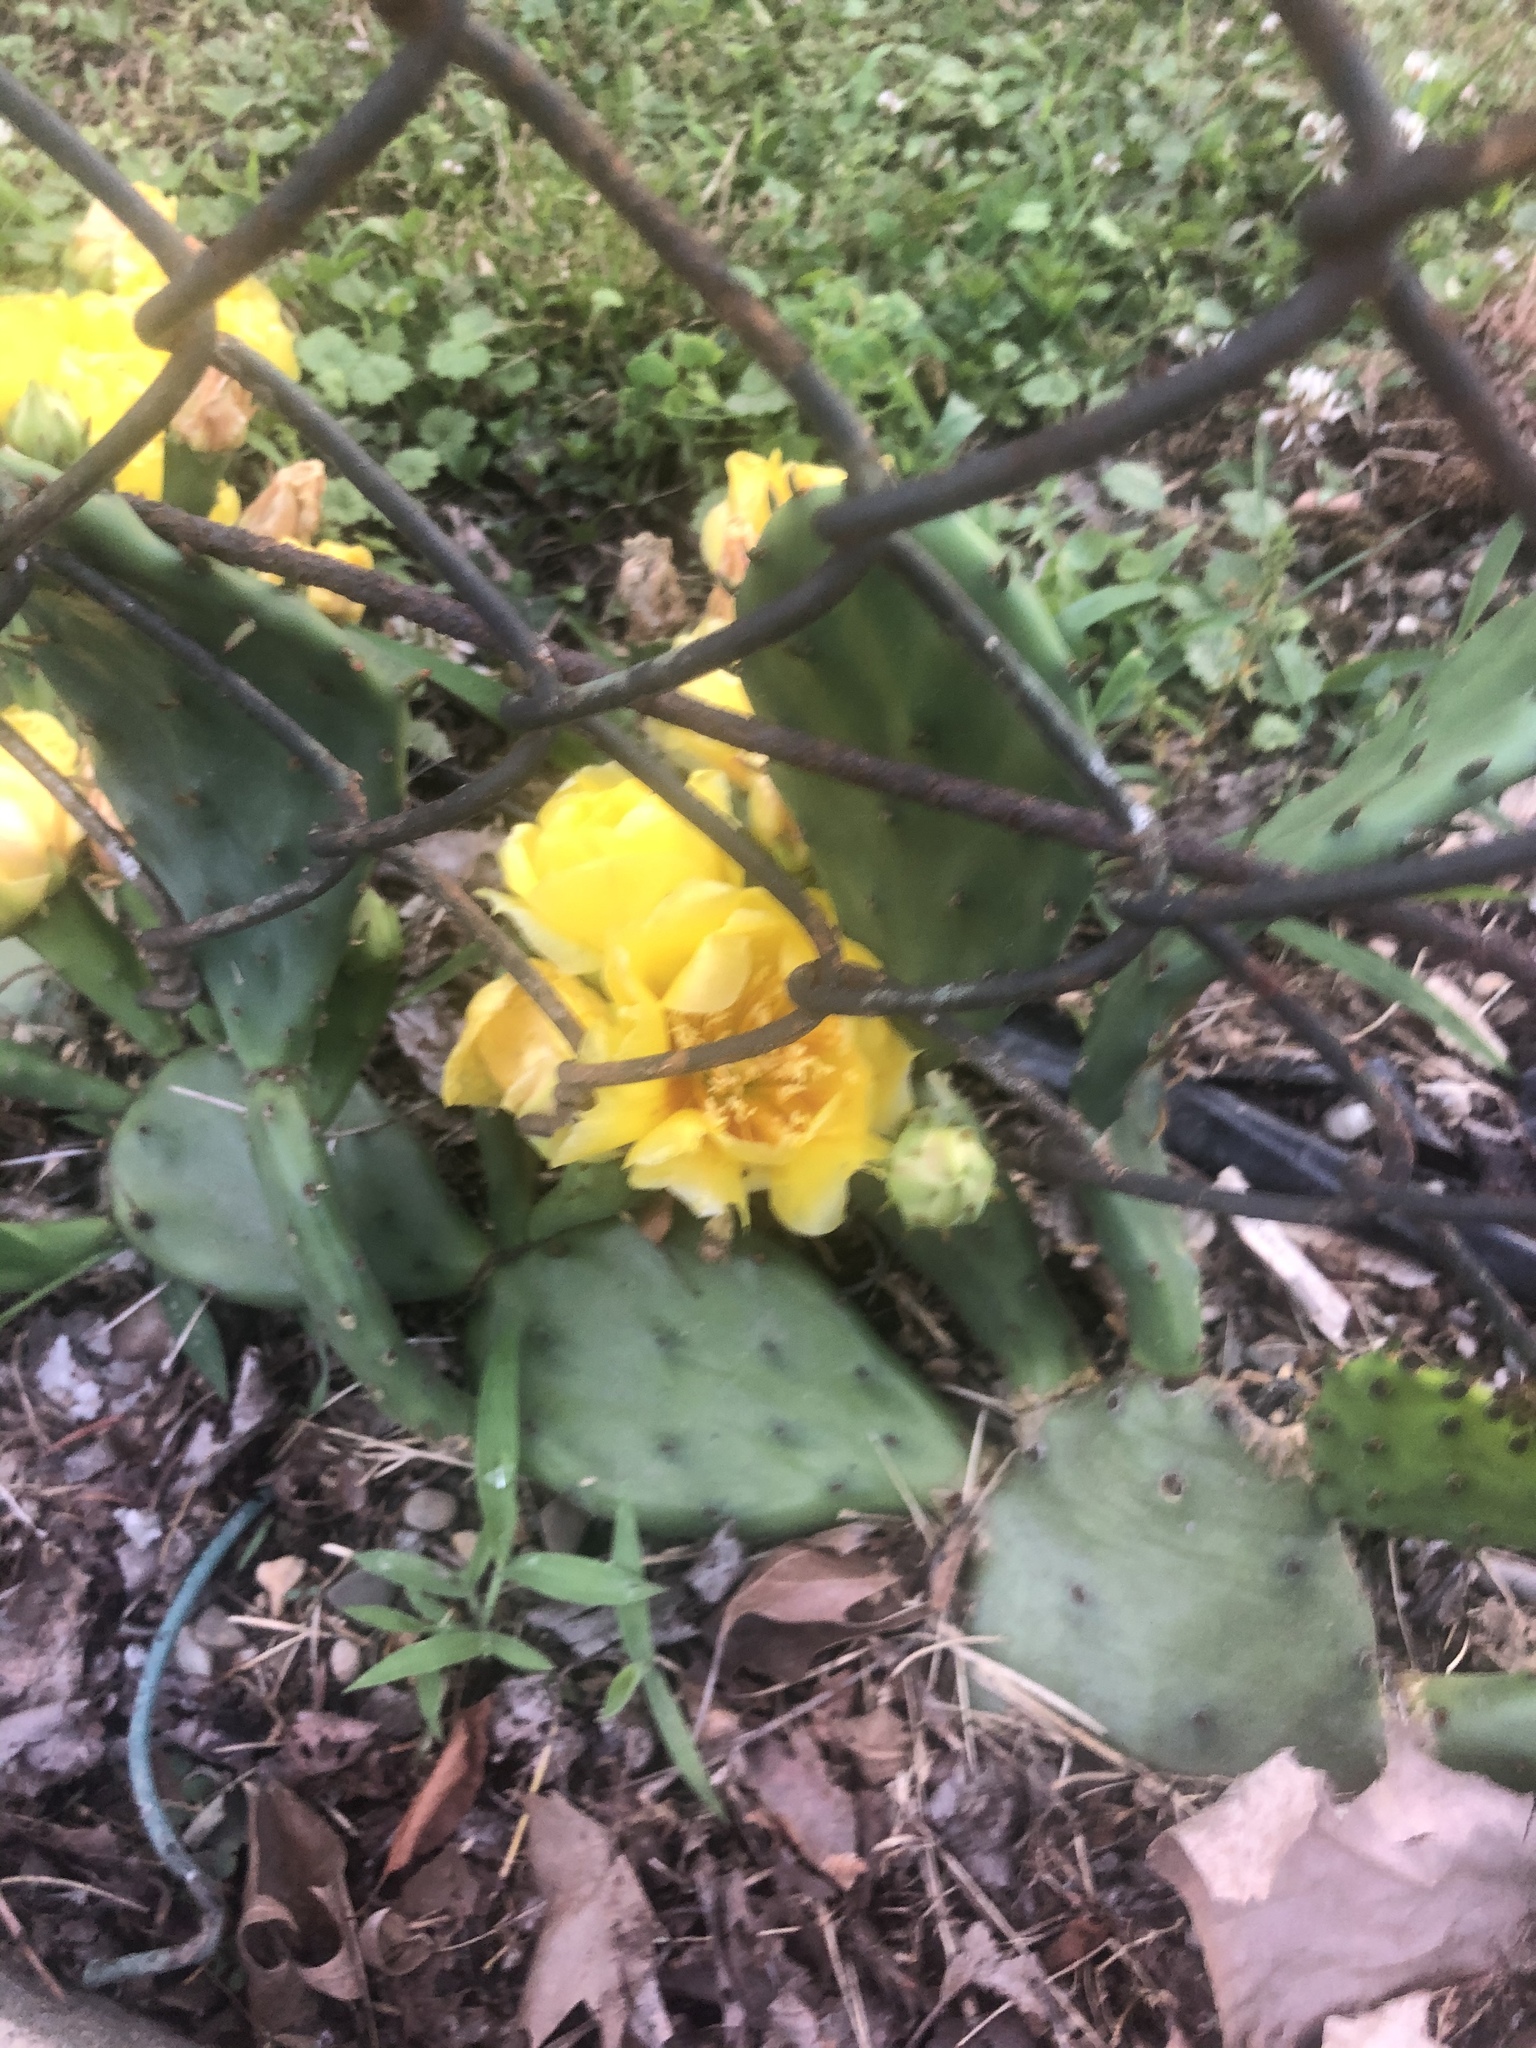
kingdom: Plantae
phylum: Tracheophyta
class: Magnoliopsida
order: Caryophyllales
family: Cactaceae
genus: Opuntia
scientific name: Opuntia humifusa
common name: Eastern prickly-pear
